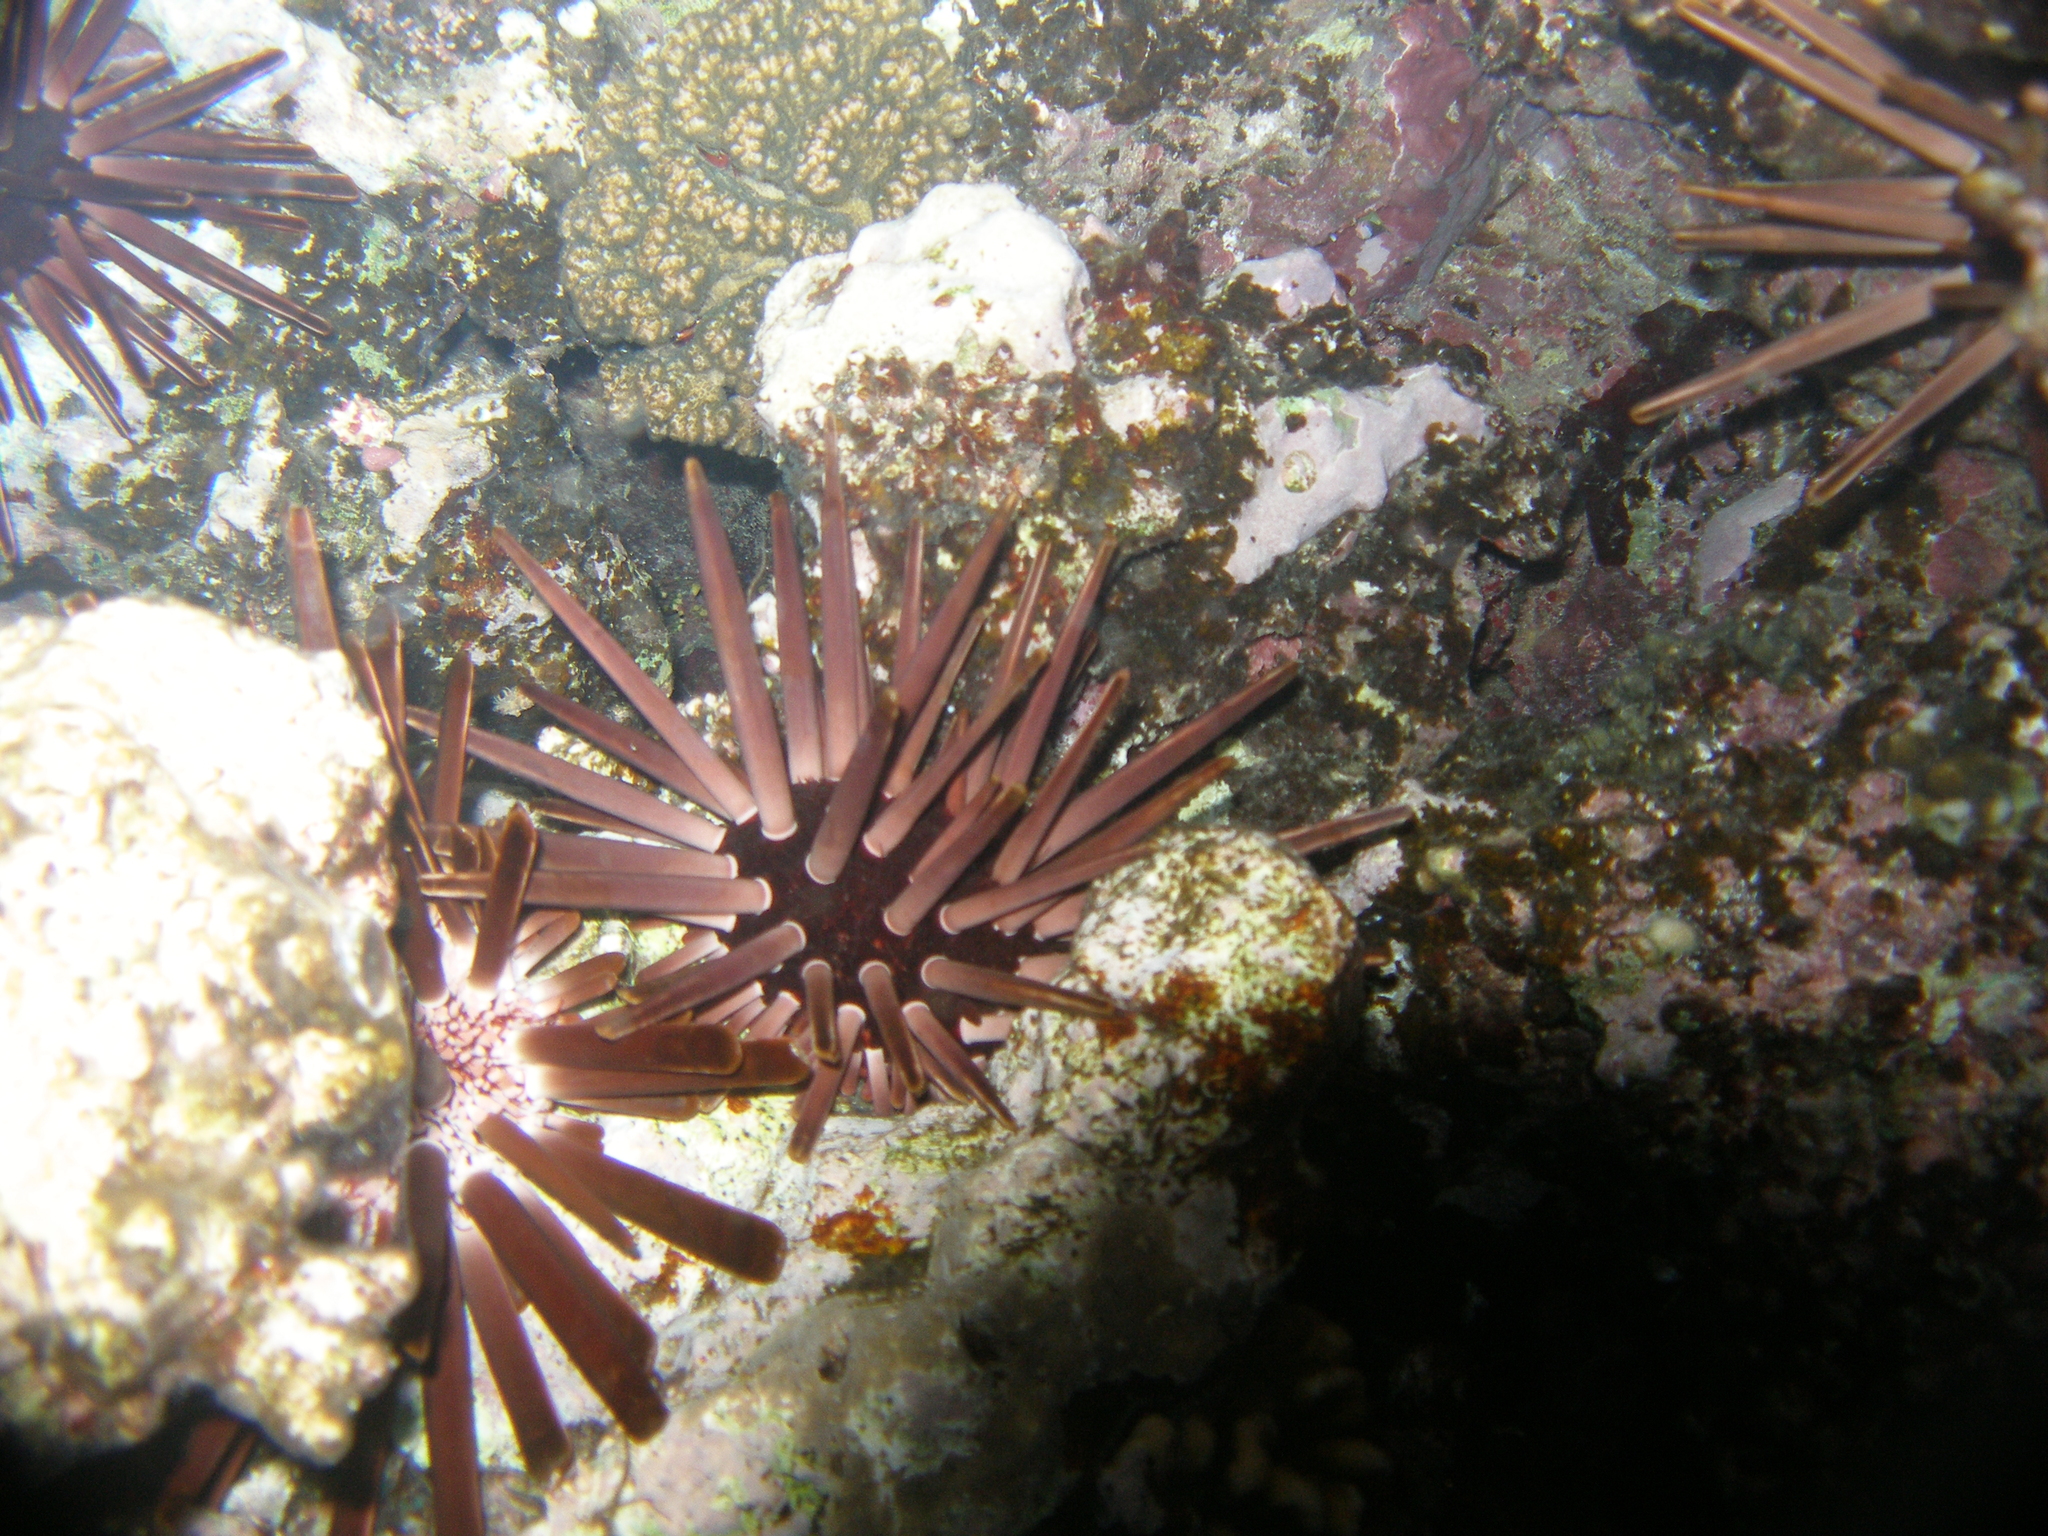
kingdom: Animalia
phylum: Echinodermata
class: Echinoidea
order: Camarodonta
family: Echinometridae
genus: Heterocentrotus
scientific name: Heterocentrotus mamillatus
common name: Slate pencil urchin
